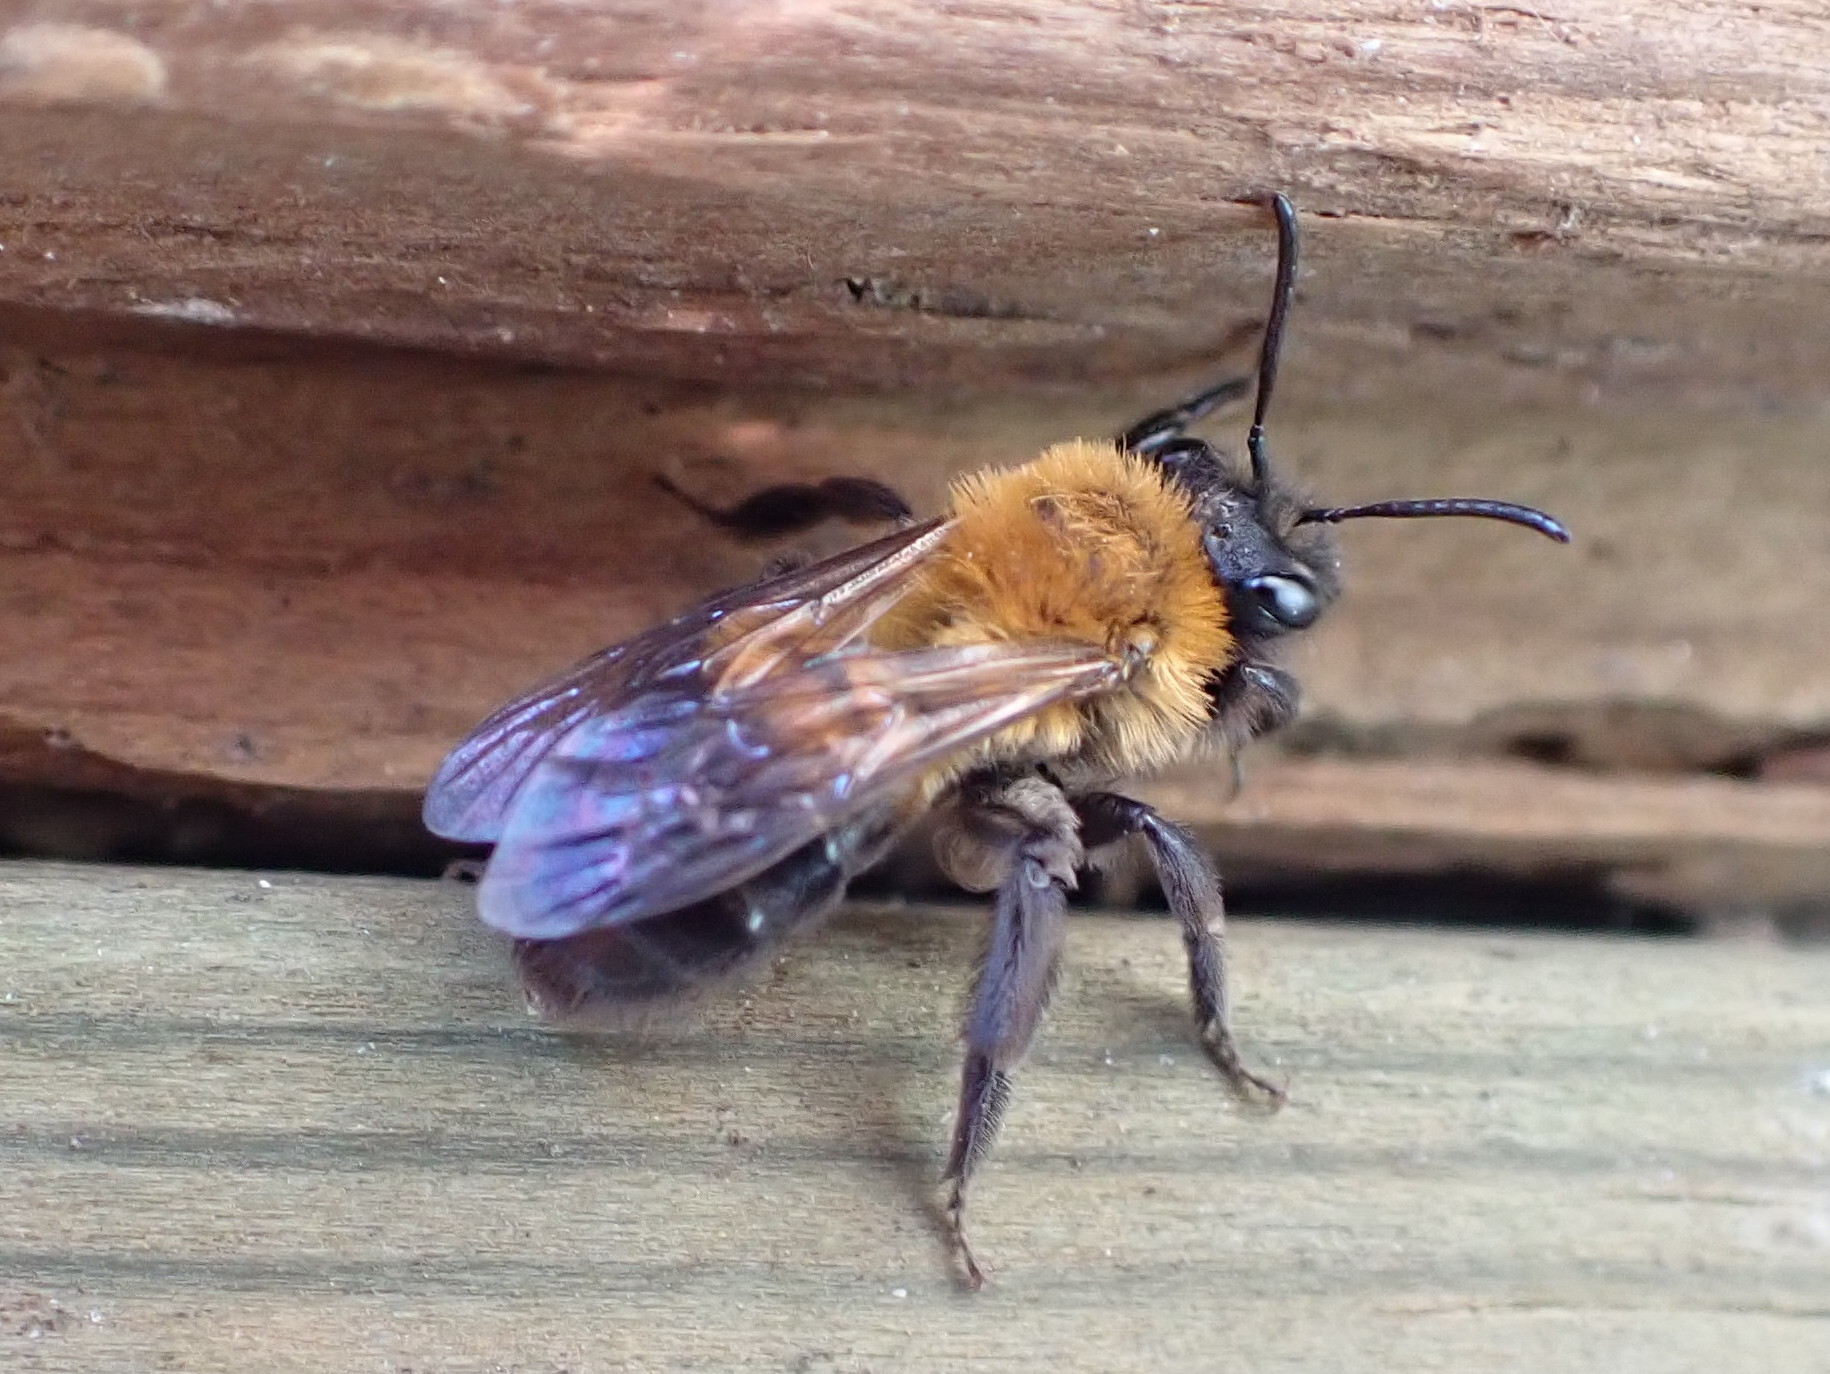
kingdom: Animalia
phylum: Arthropoda
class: Insecta
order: Hymenoptera
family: Andrenidae
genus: Andrena
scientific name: Andrena milwaukeensis
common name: Milwaukee mining bee
